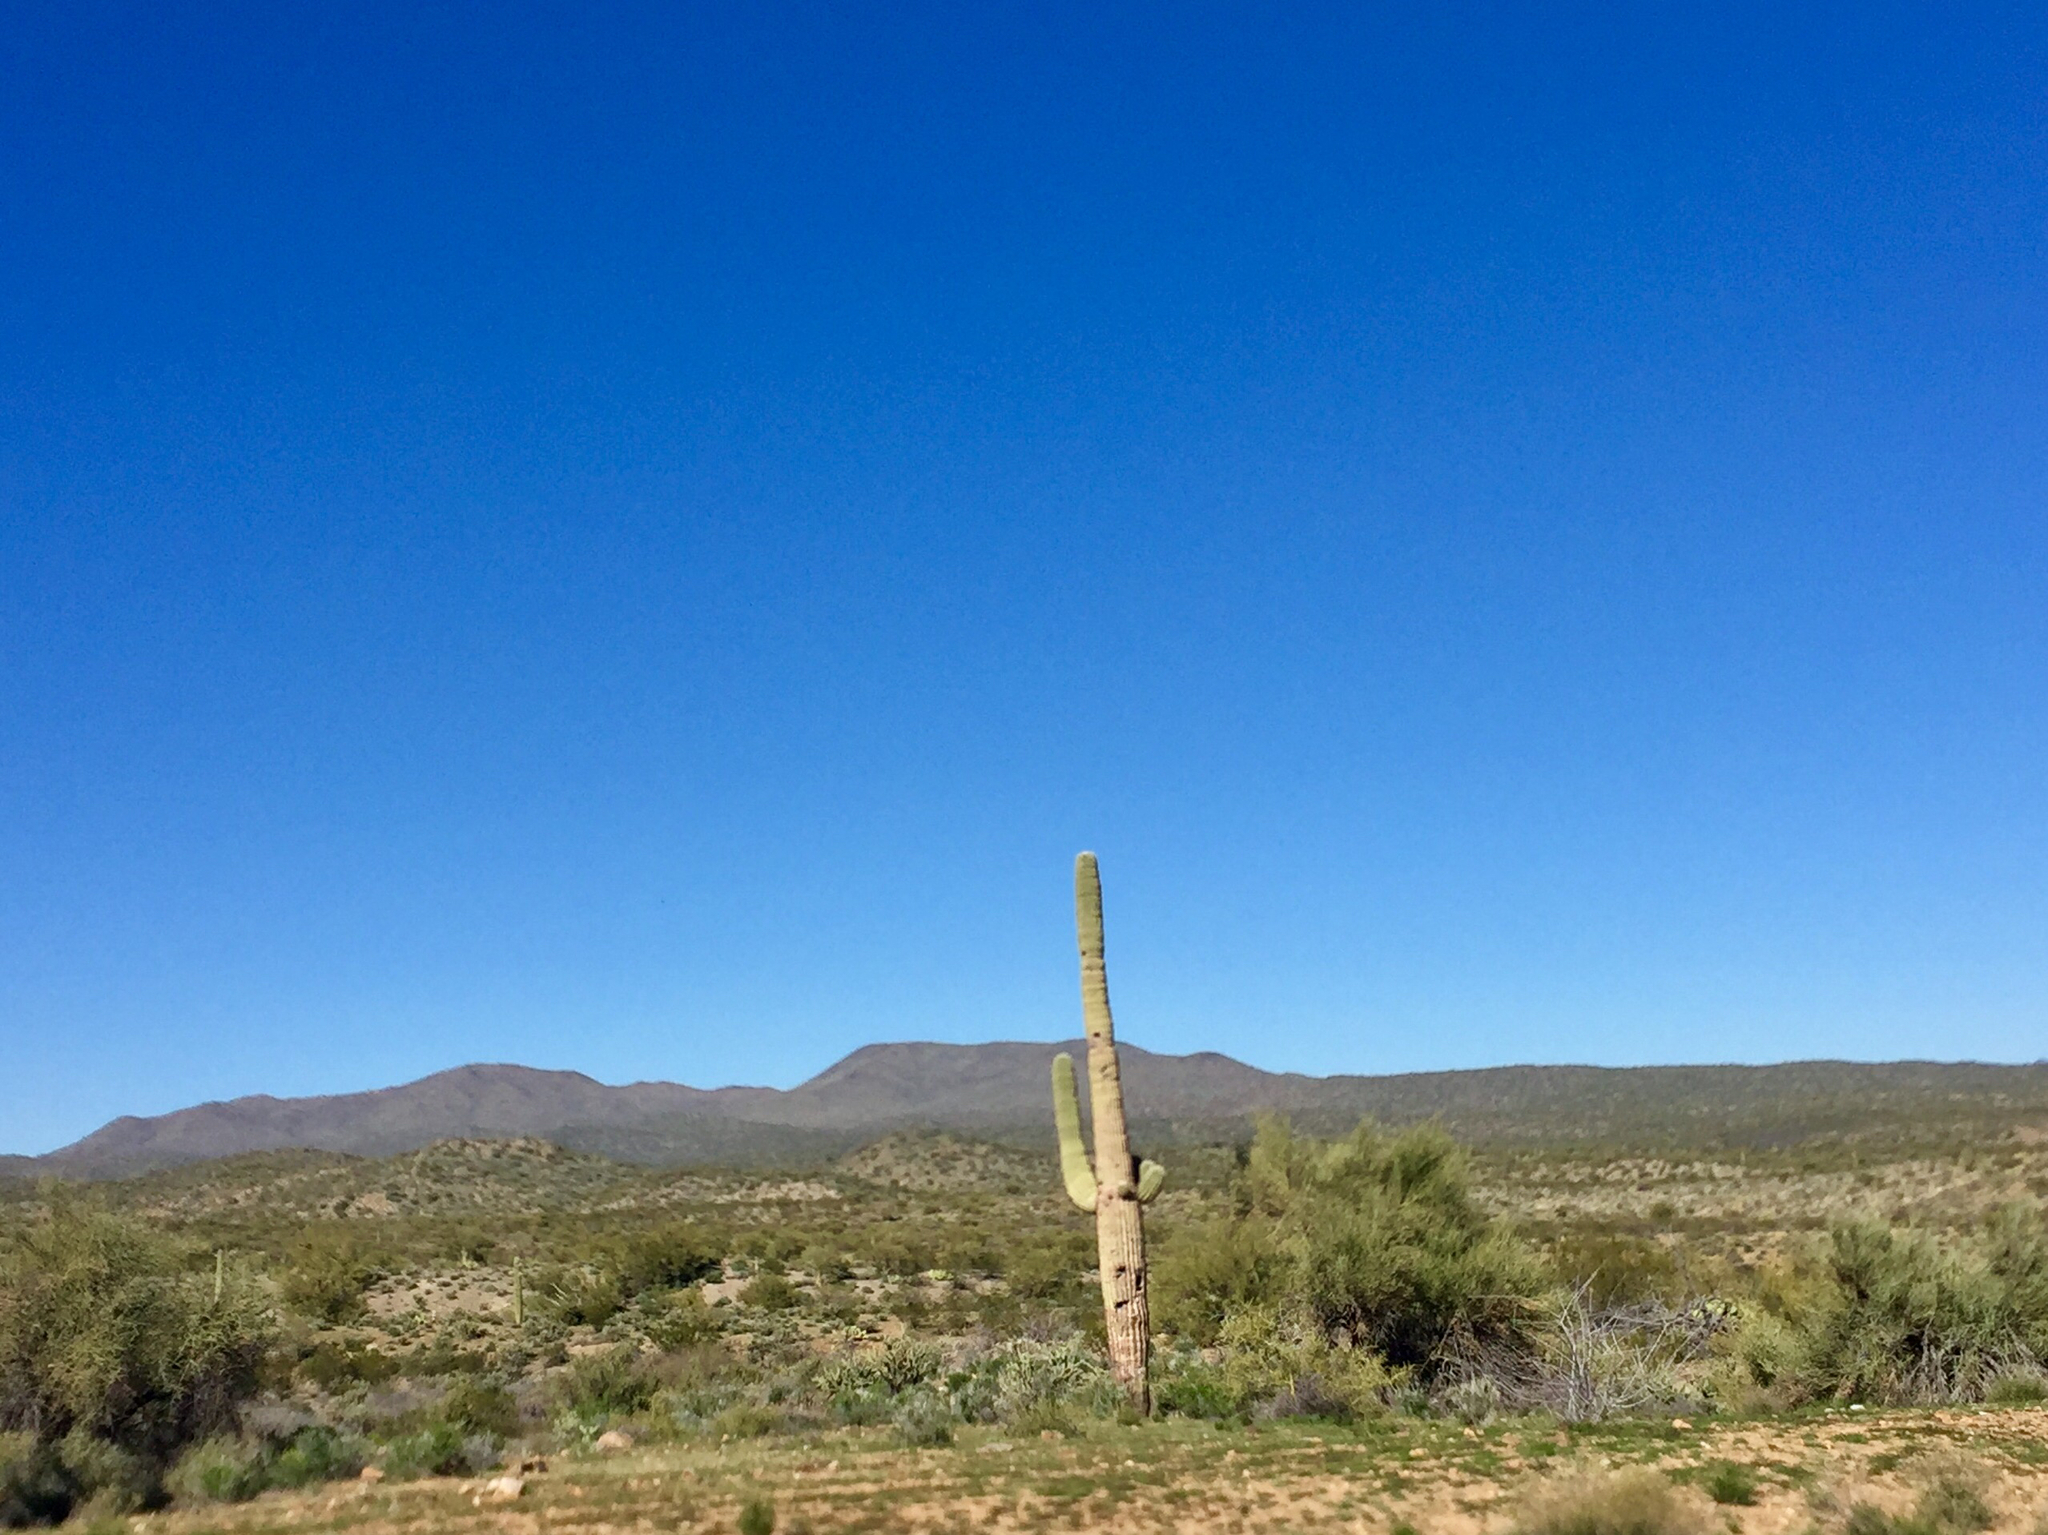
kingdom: Plantae
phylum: Tracheophyta
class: Magnoliopsida
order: Caryophyllales
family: Cactaceae
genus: Carnegiea
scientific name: Carnegiea gigantea
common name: Saguaro
